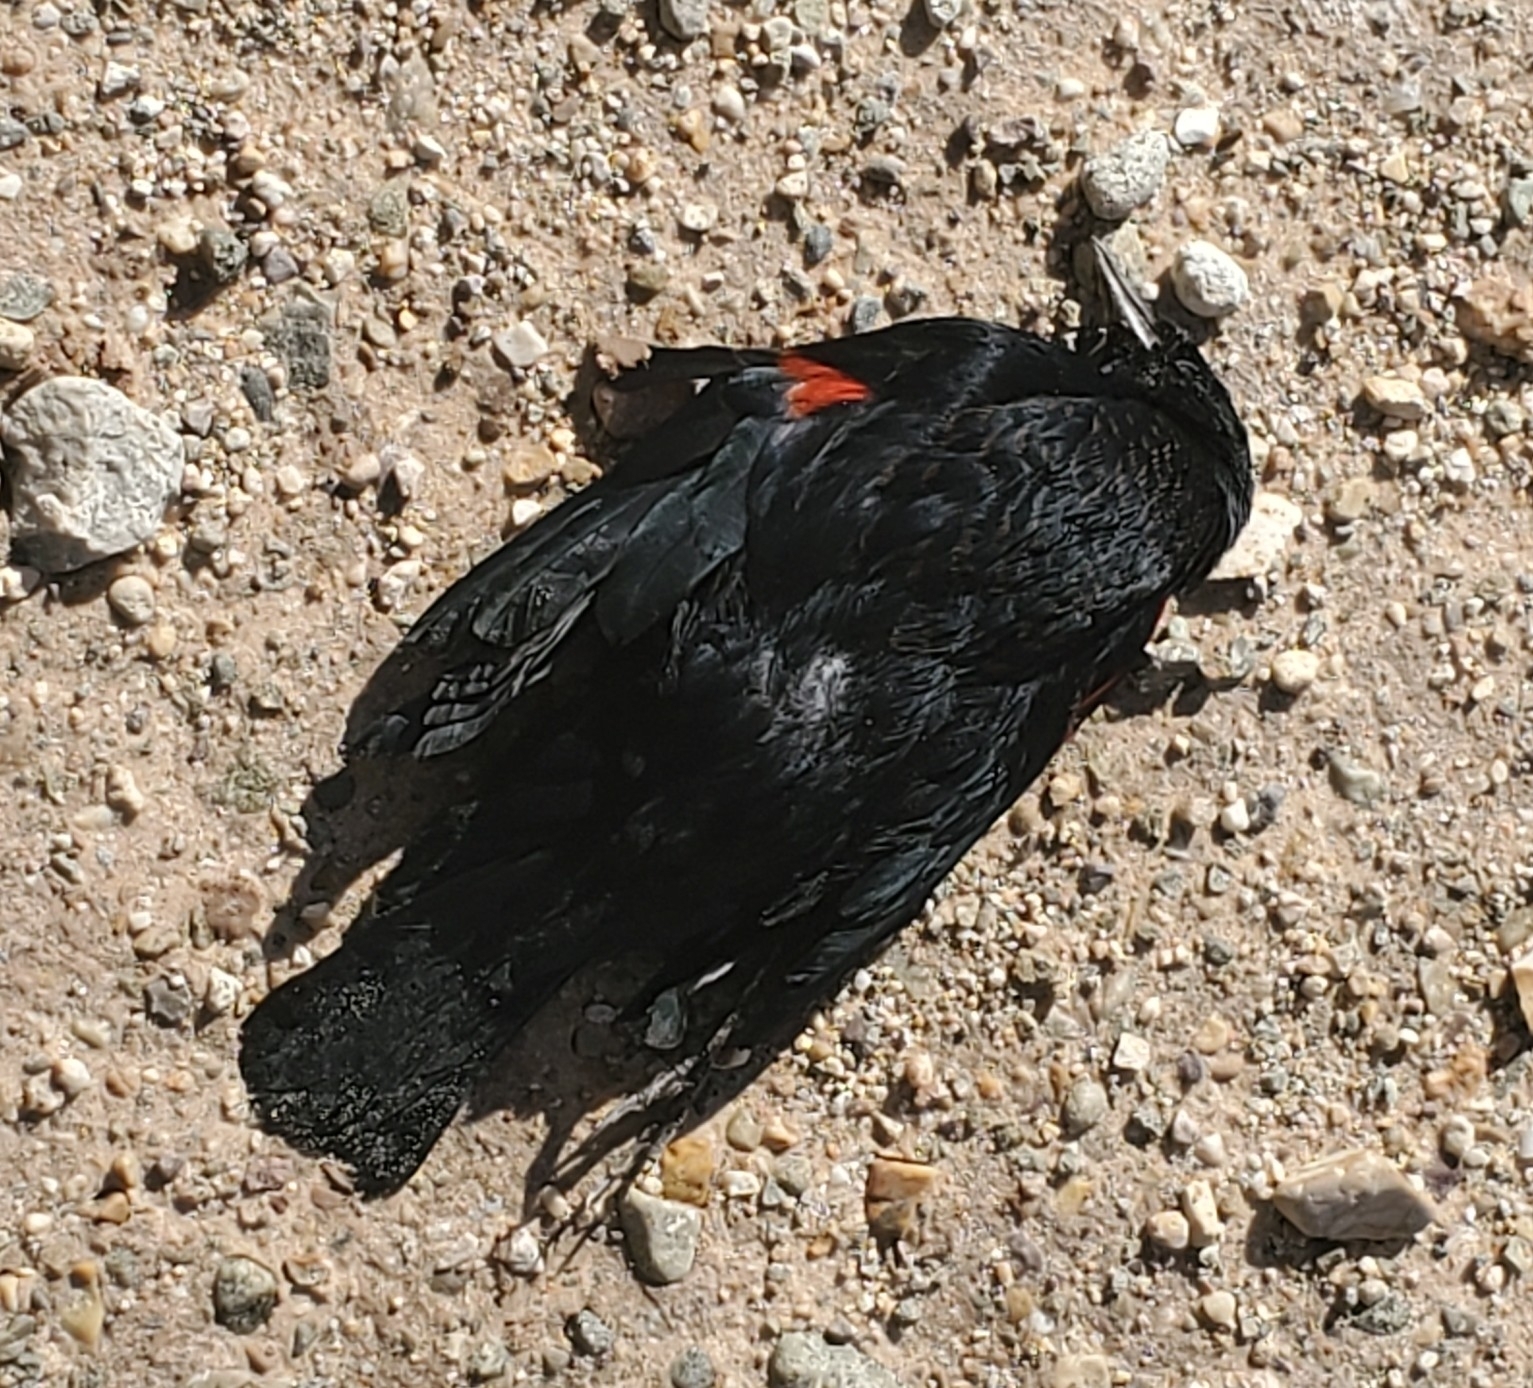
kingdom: Animalia
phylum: Chordata
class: Aves
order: Passeriformes
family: Icteridae
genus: Agelaius
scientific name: Agelaius phoeniceus
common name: Red-winged blackbird
